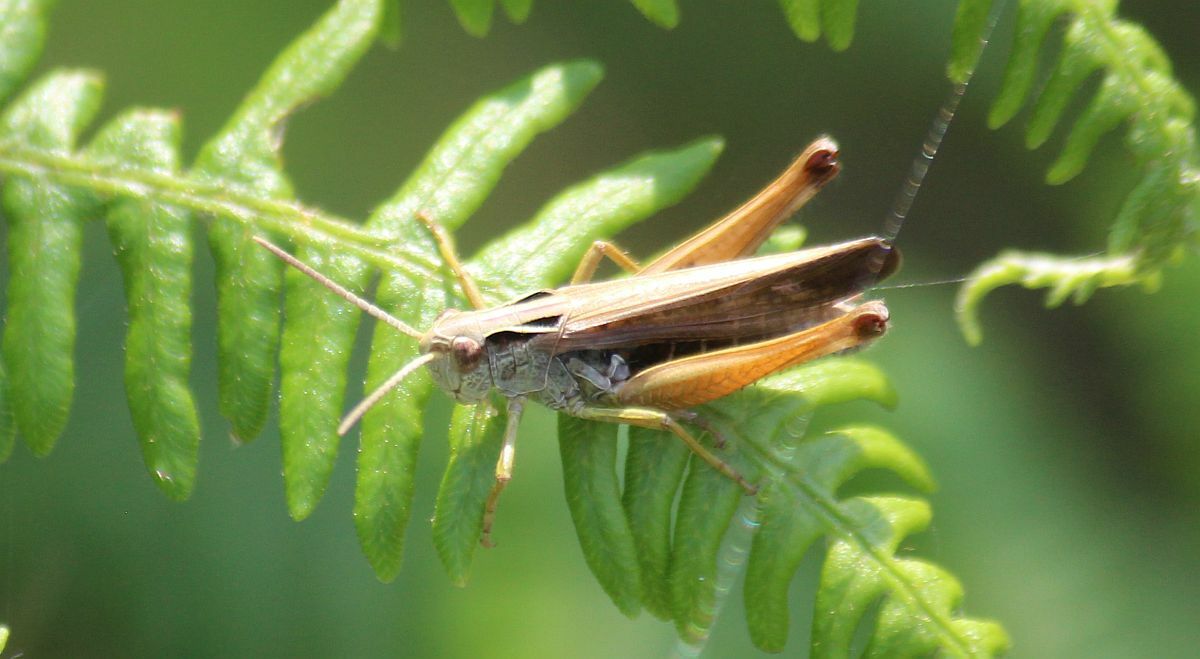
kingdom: Animalia
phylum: Arthropoda
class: Insecta
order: Orthoptera
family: Acrididae
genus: Omocestus
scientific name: Omocestus viridulus
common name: Common green grasshopper
